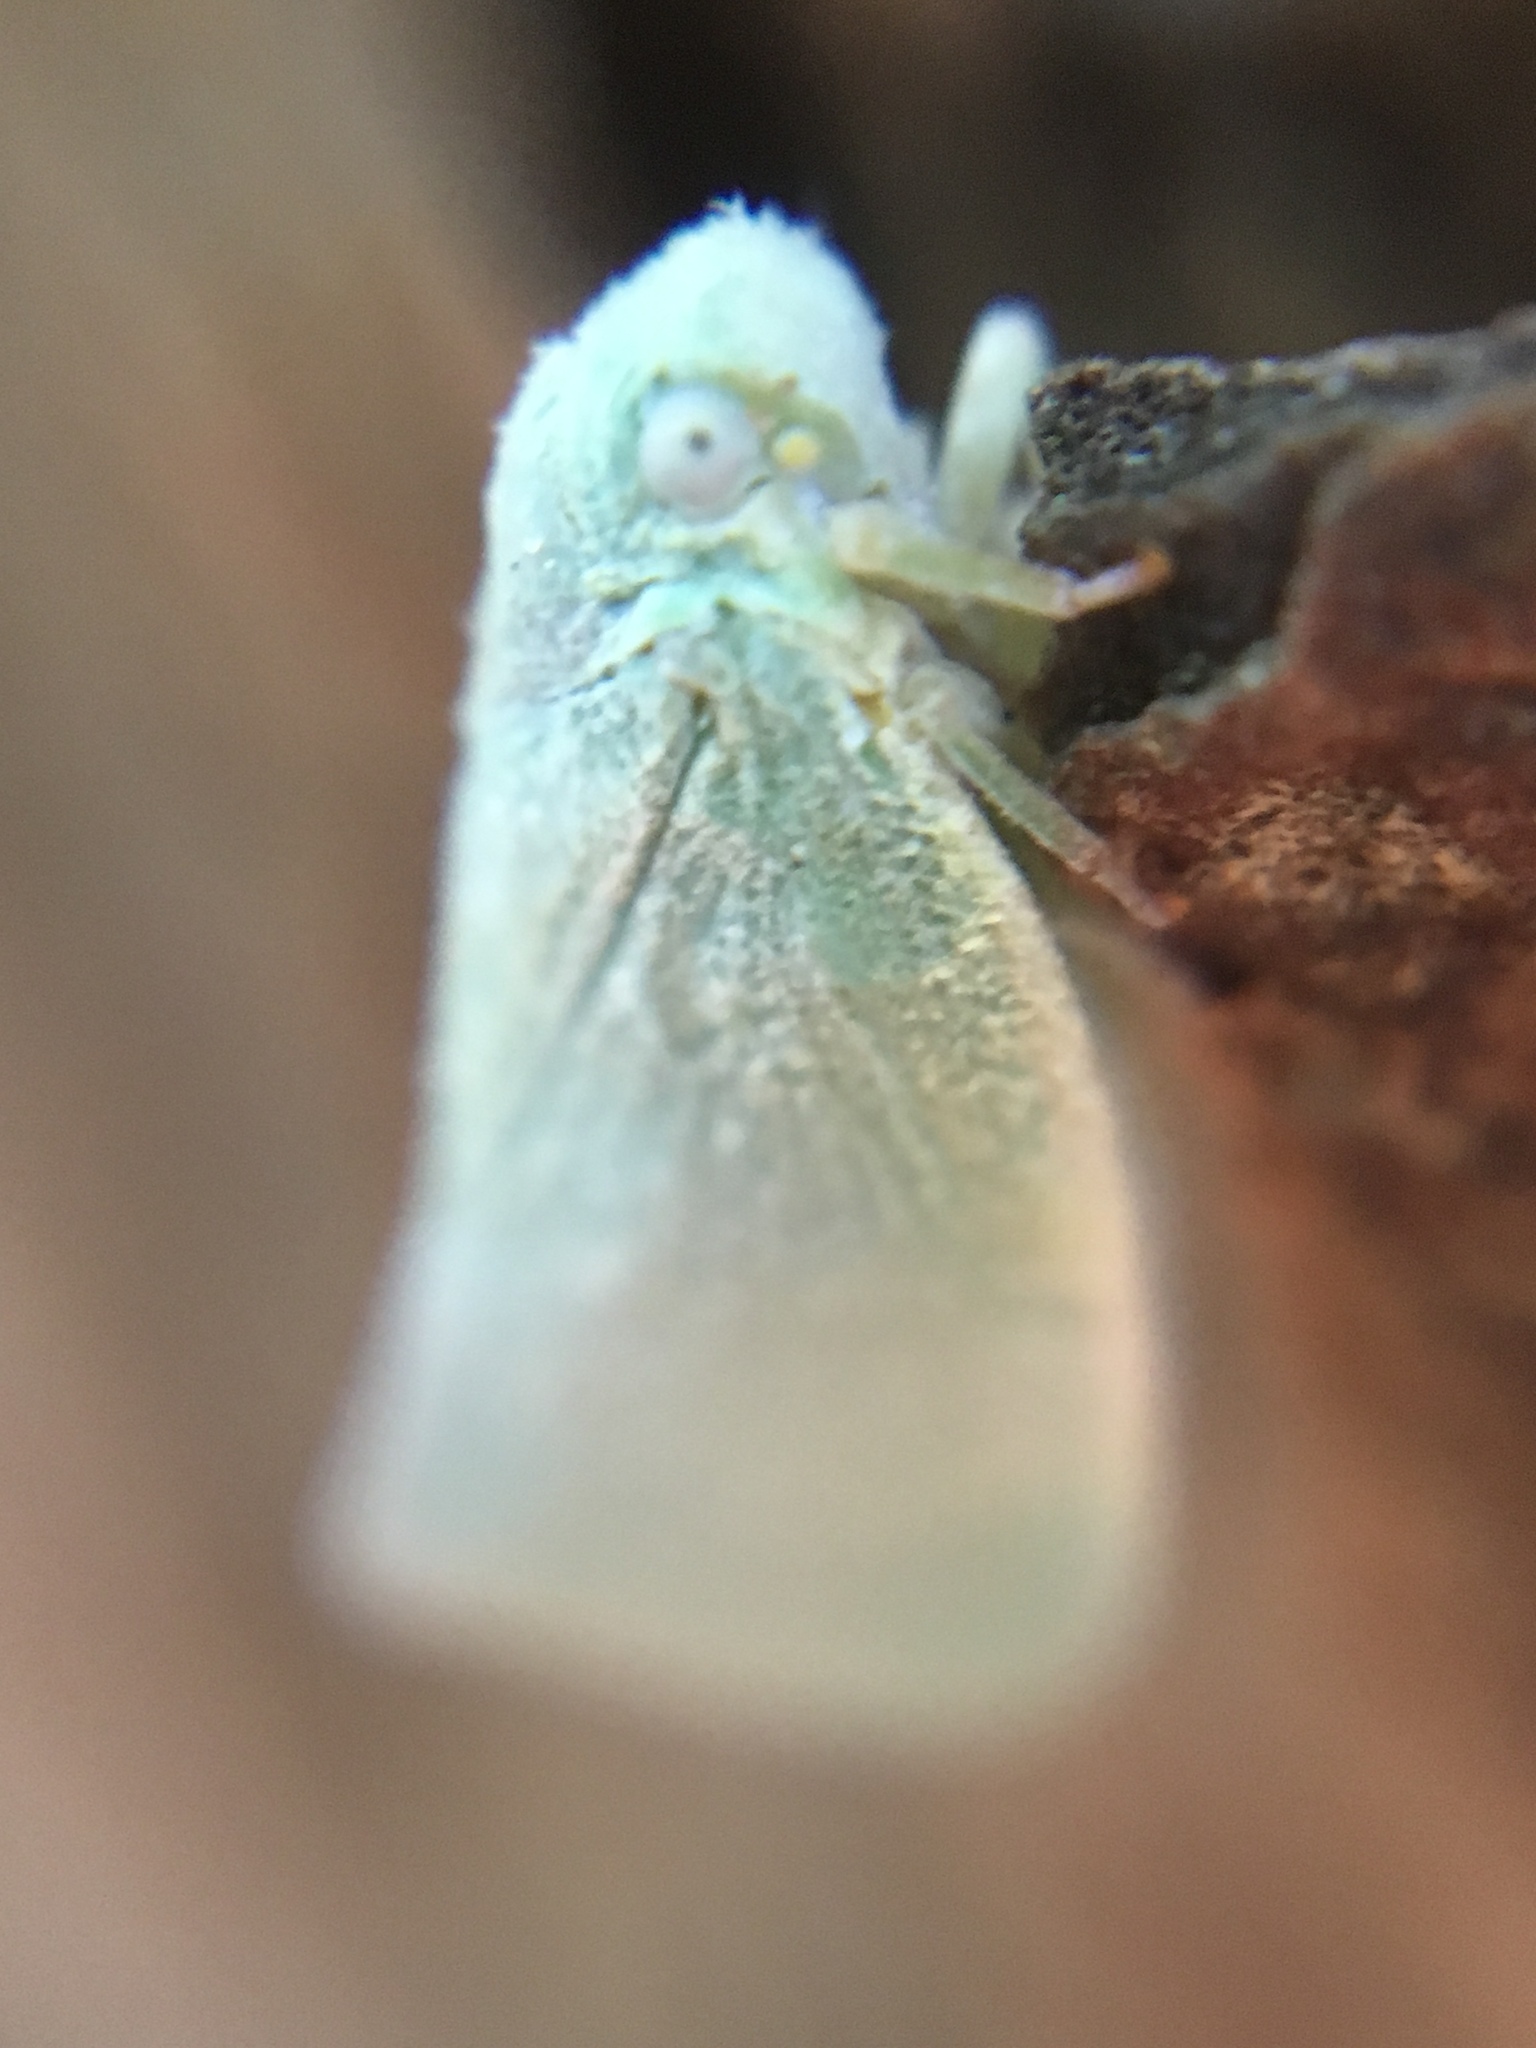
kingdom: Animalia
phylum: Arthropoda
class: Insecta
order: Hemiptera
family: Flatidae
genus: Flatormenis
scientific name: Flatormenis proxima
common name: Northern flatid planthopper
